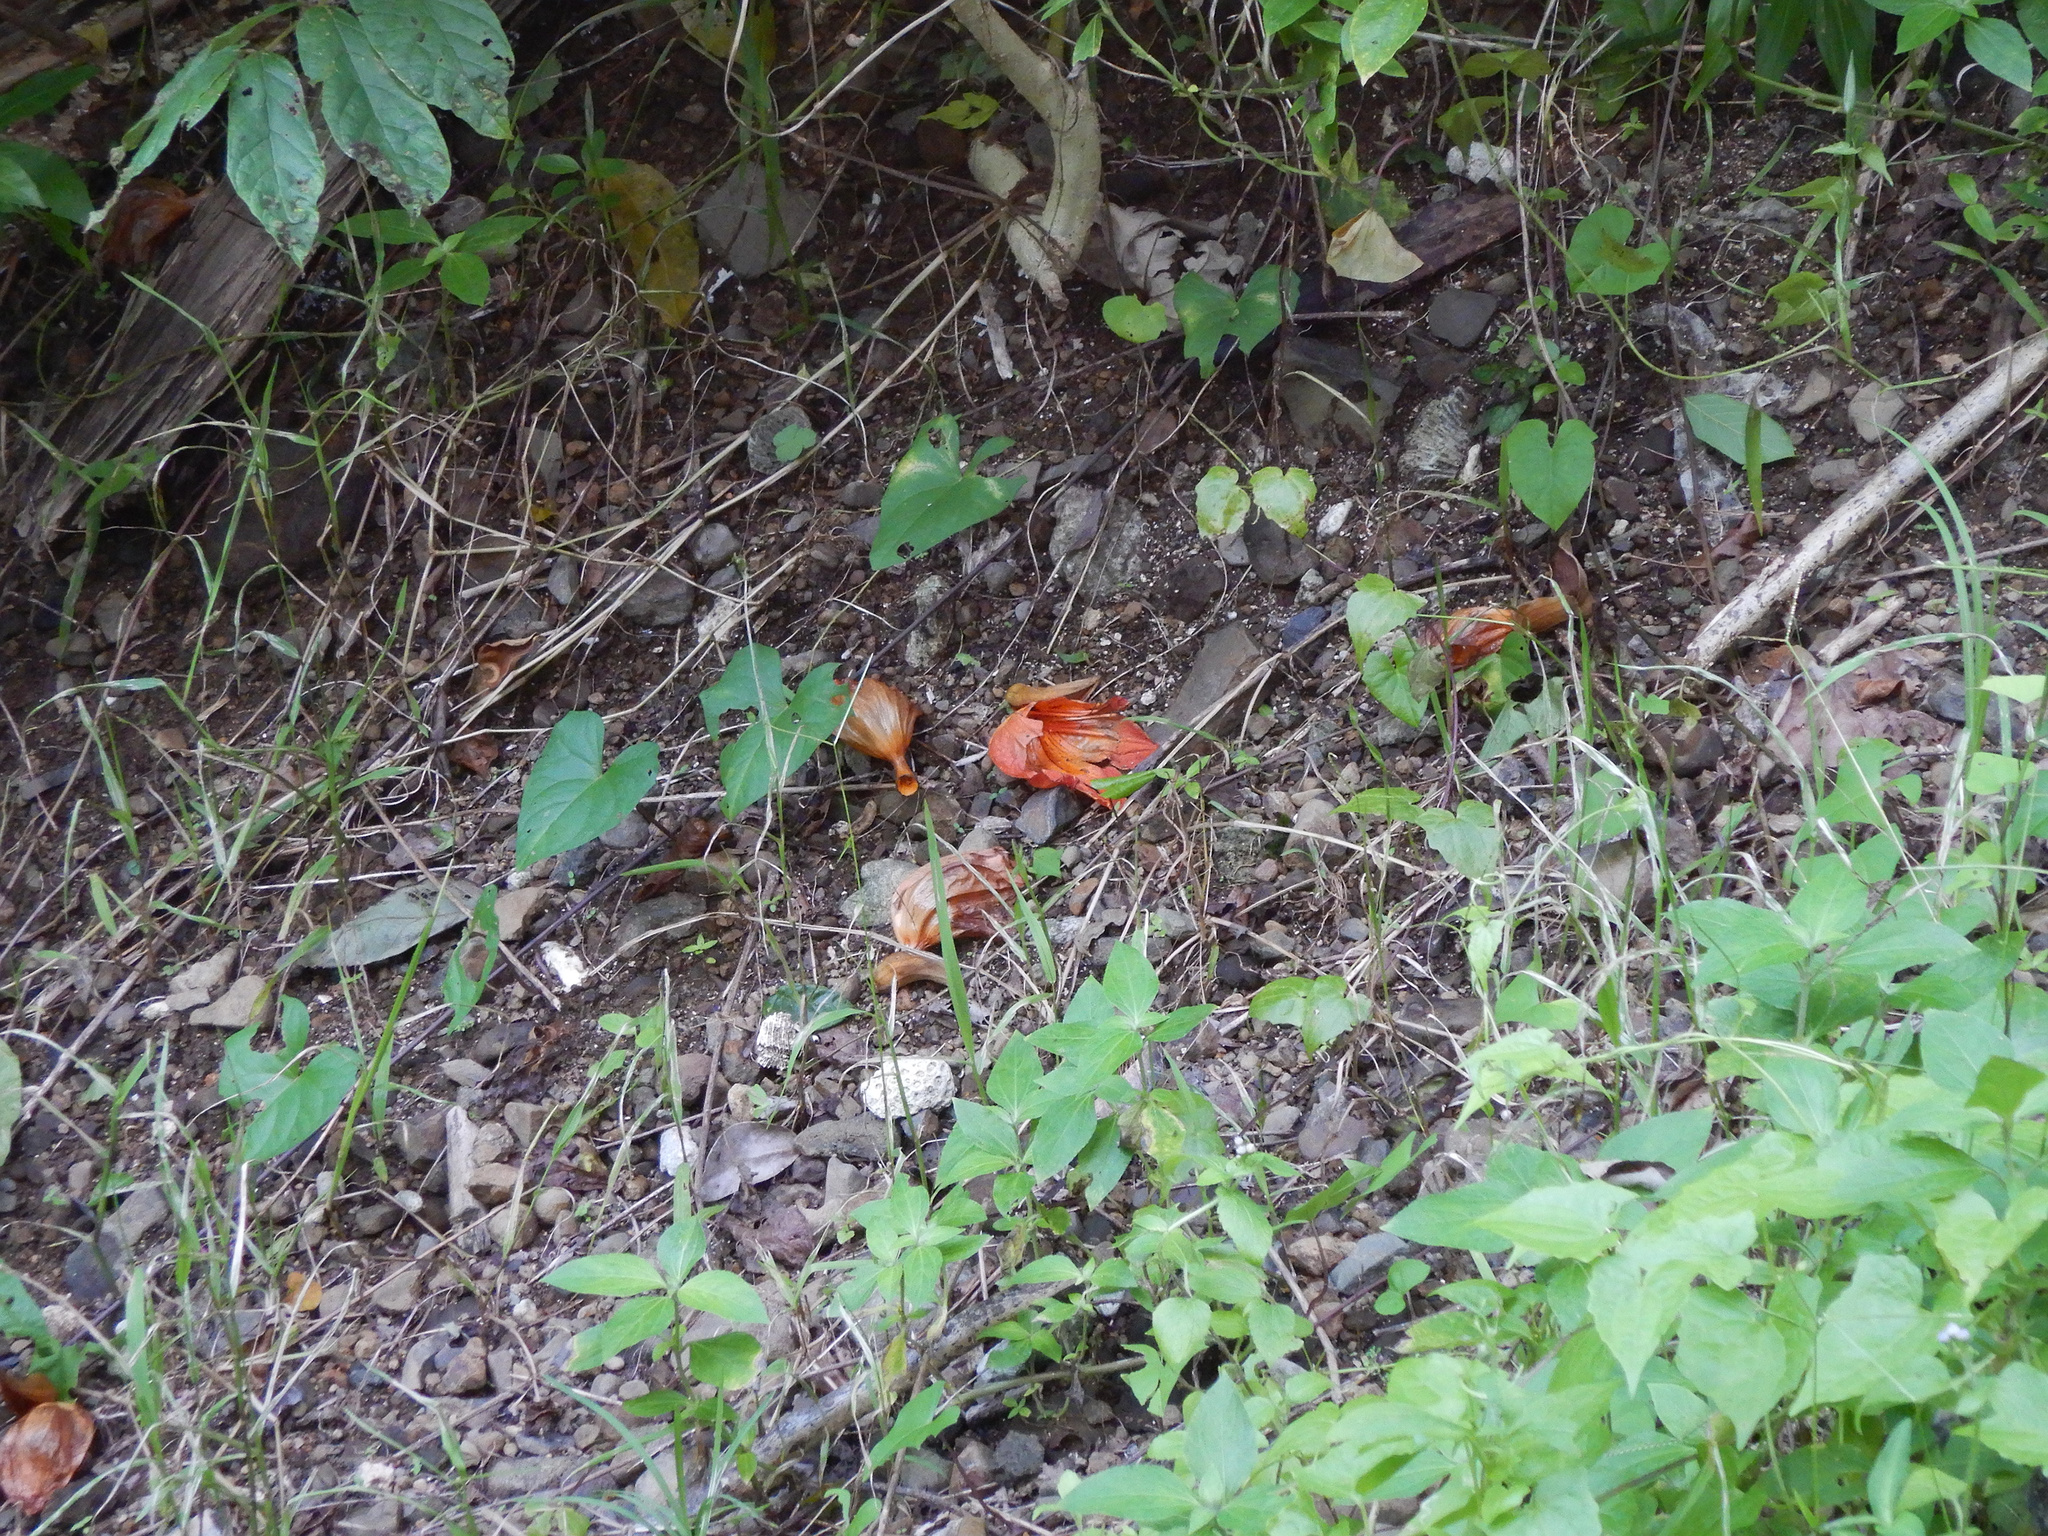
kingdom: Plantae
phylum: Tracheophyta
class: Magnoliopsida
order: Lamiales
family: Bignoniaceae
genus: Spathodea
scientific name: Spathodea campanulata
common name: African tuliptree
